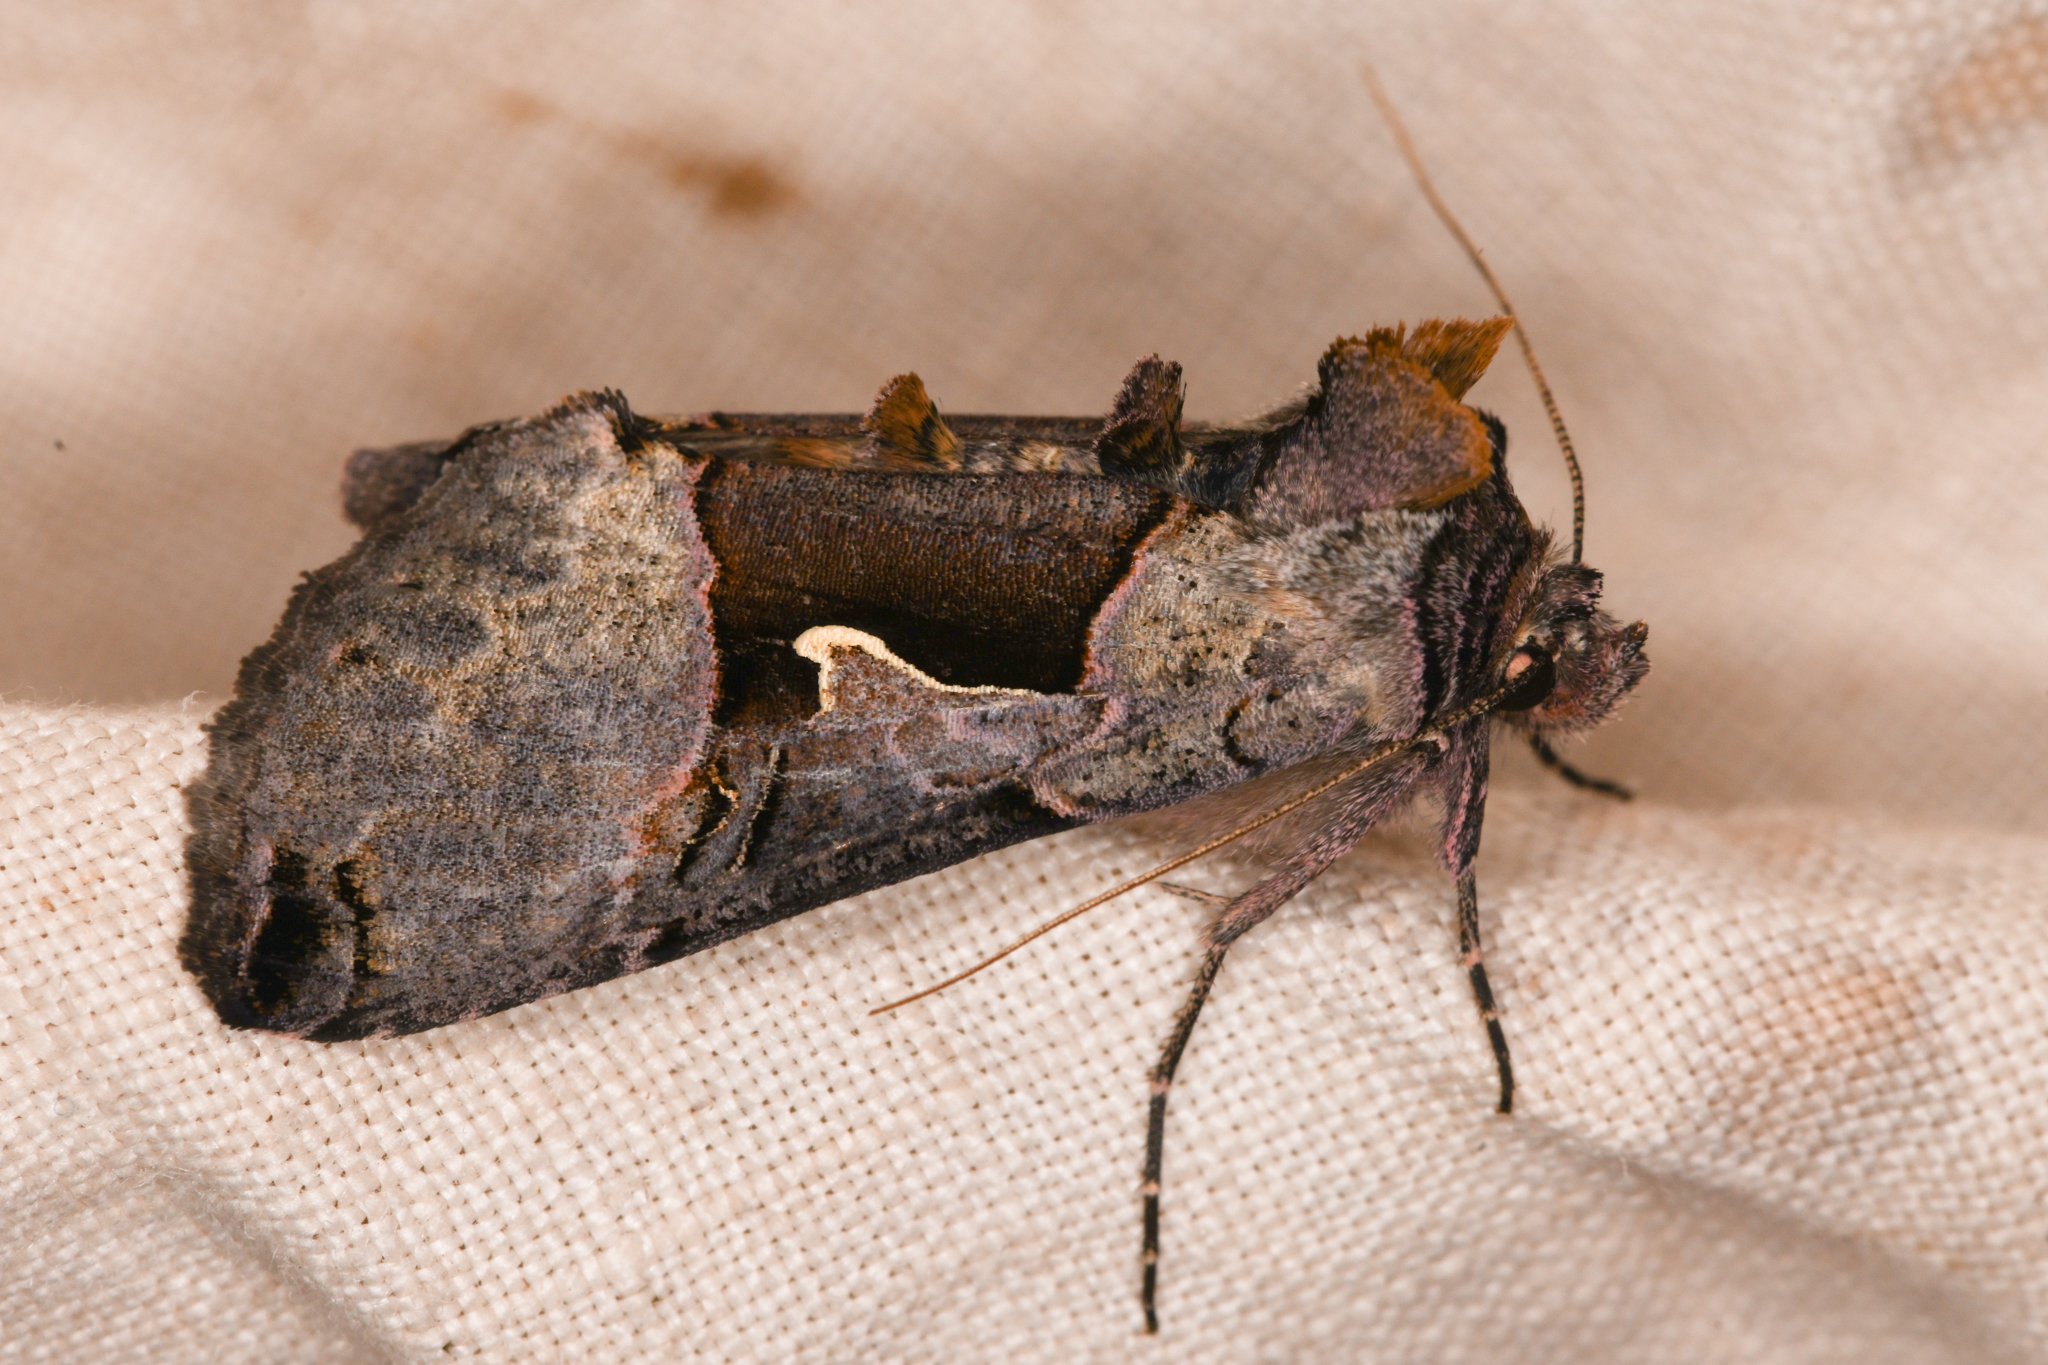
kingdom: Animalia
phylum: Arthropoda
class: Insecta
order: Lepidoptera
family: Noctuidae
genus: Autographa
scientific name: Autographa ampla
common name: Large looper moth
